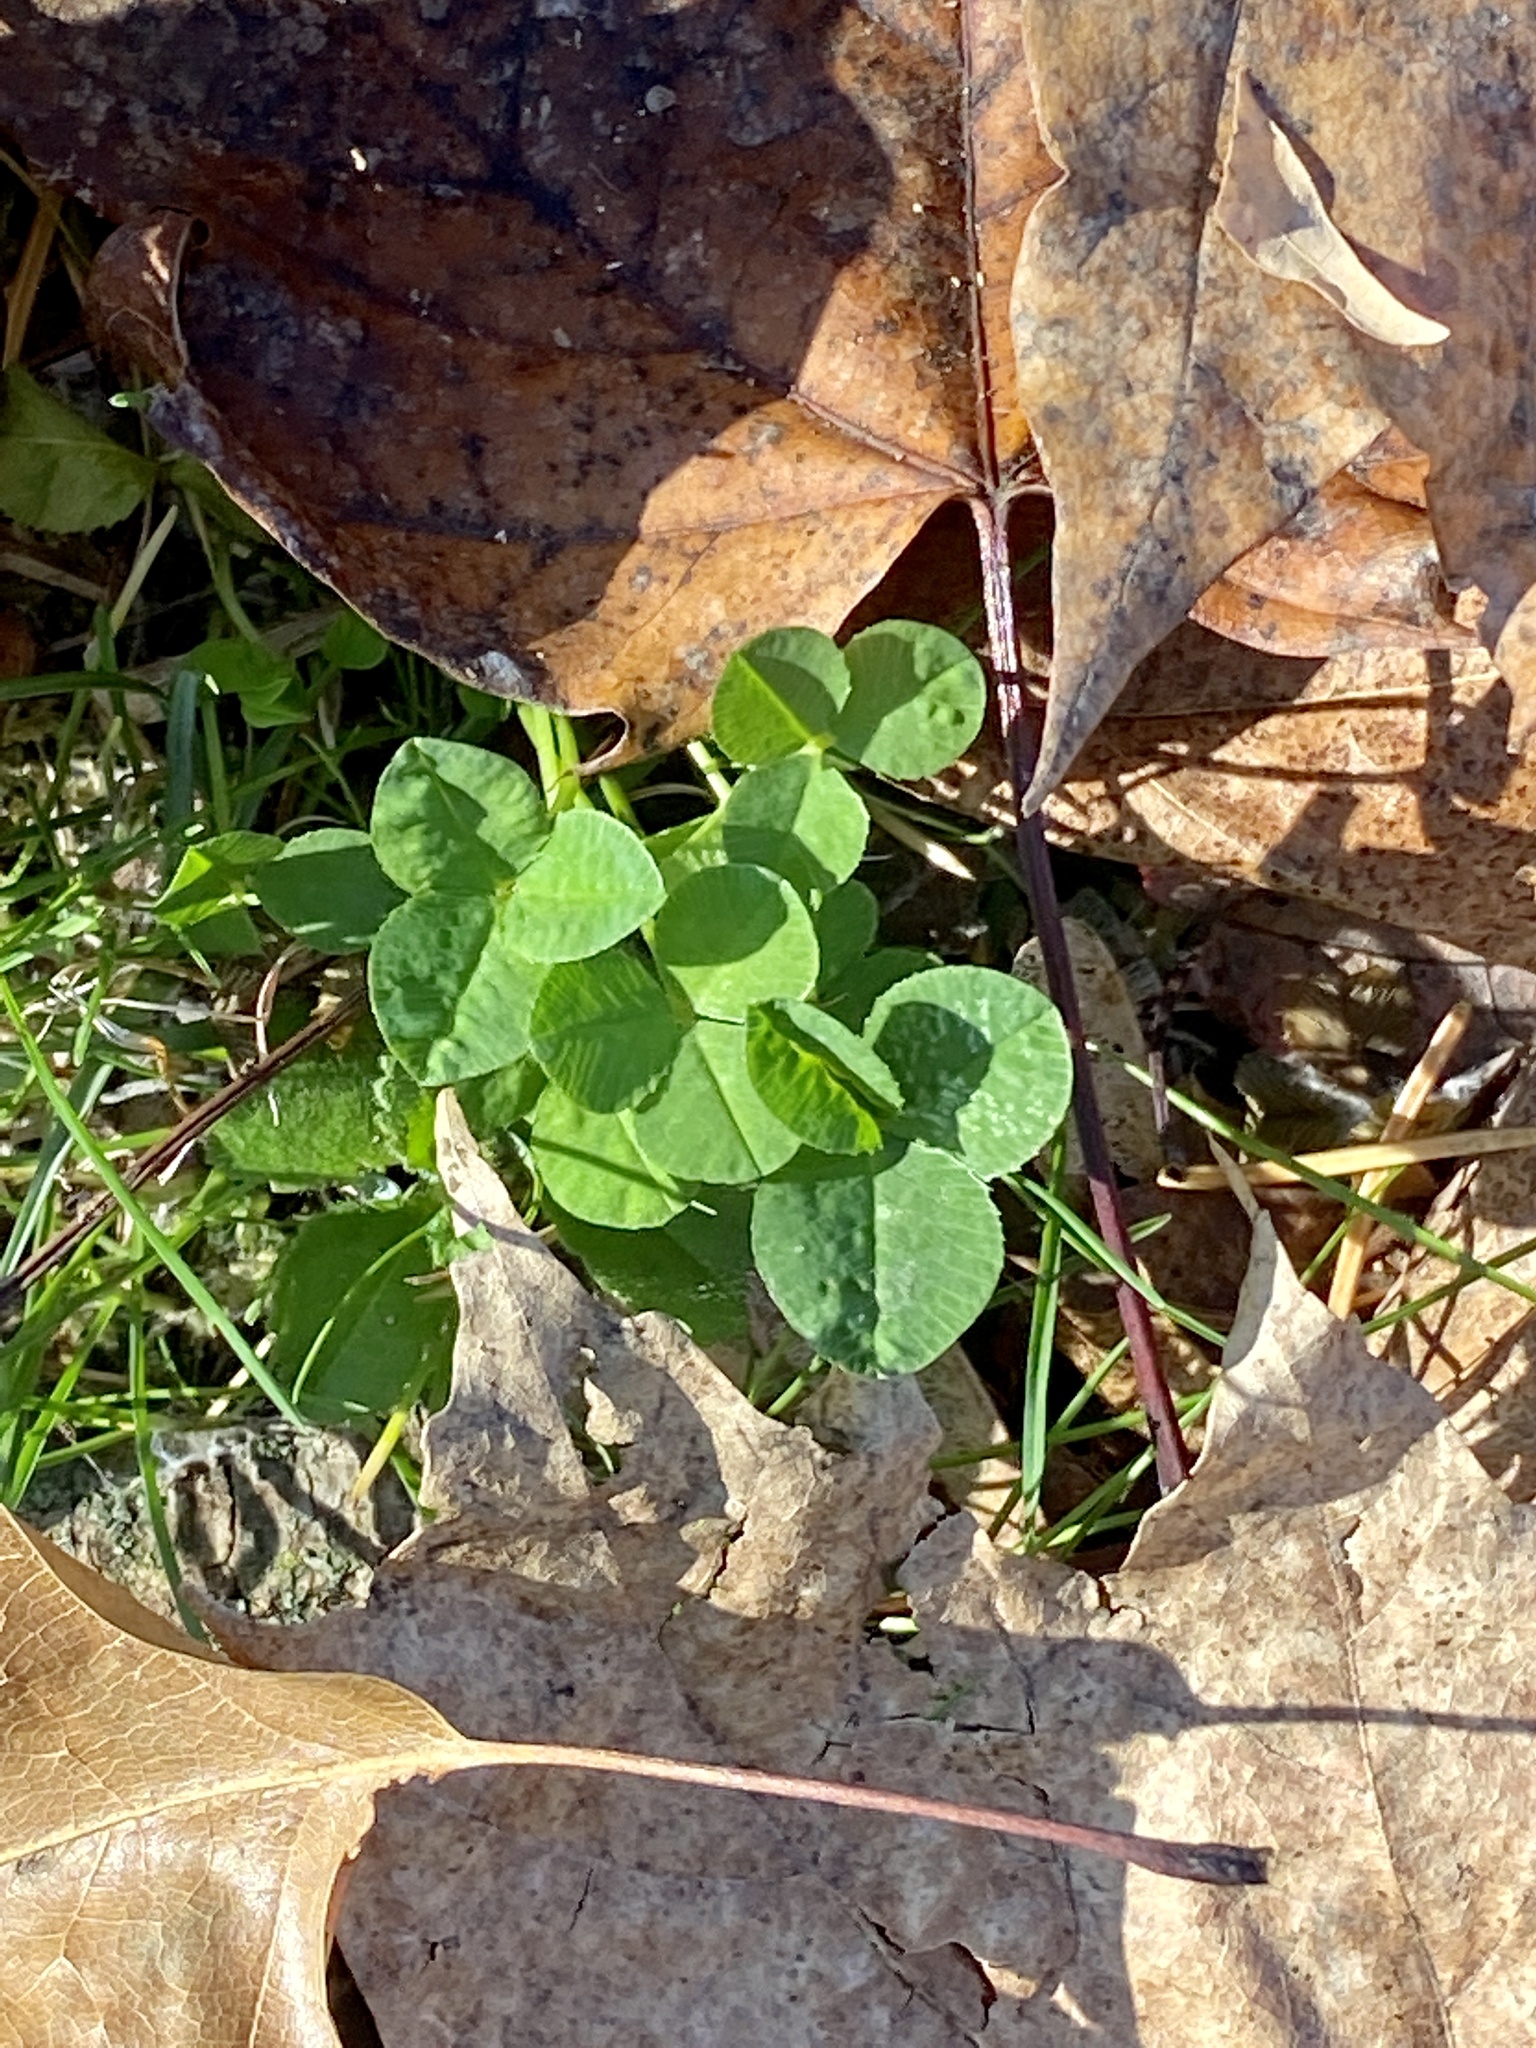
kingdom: Plantae
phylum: Tracheophyta
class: Magnoliopsida
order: Fabales
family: Fabaceae
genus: Trifolium
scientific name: Trifolium repens
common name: White clover
